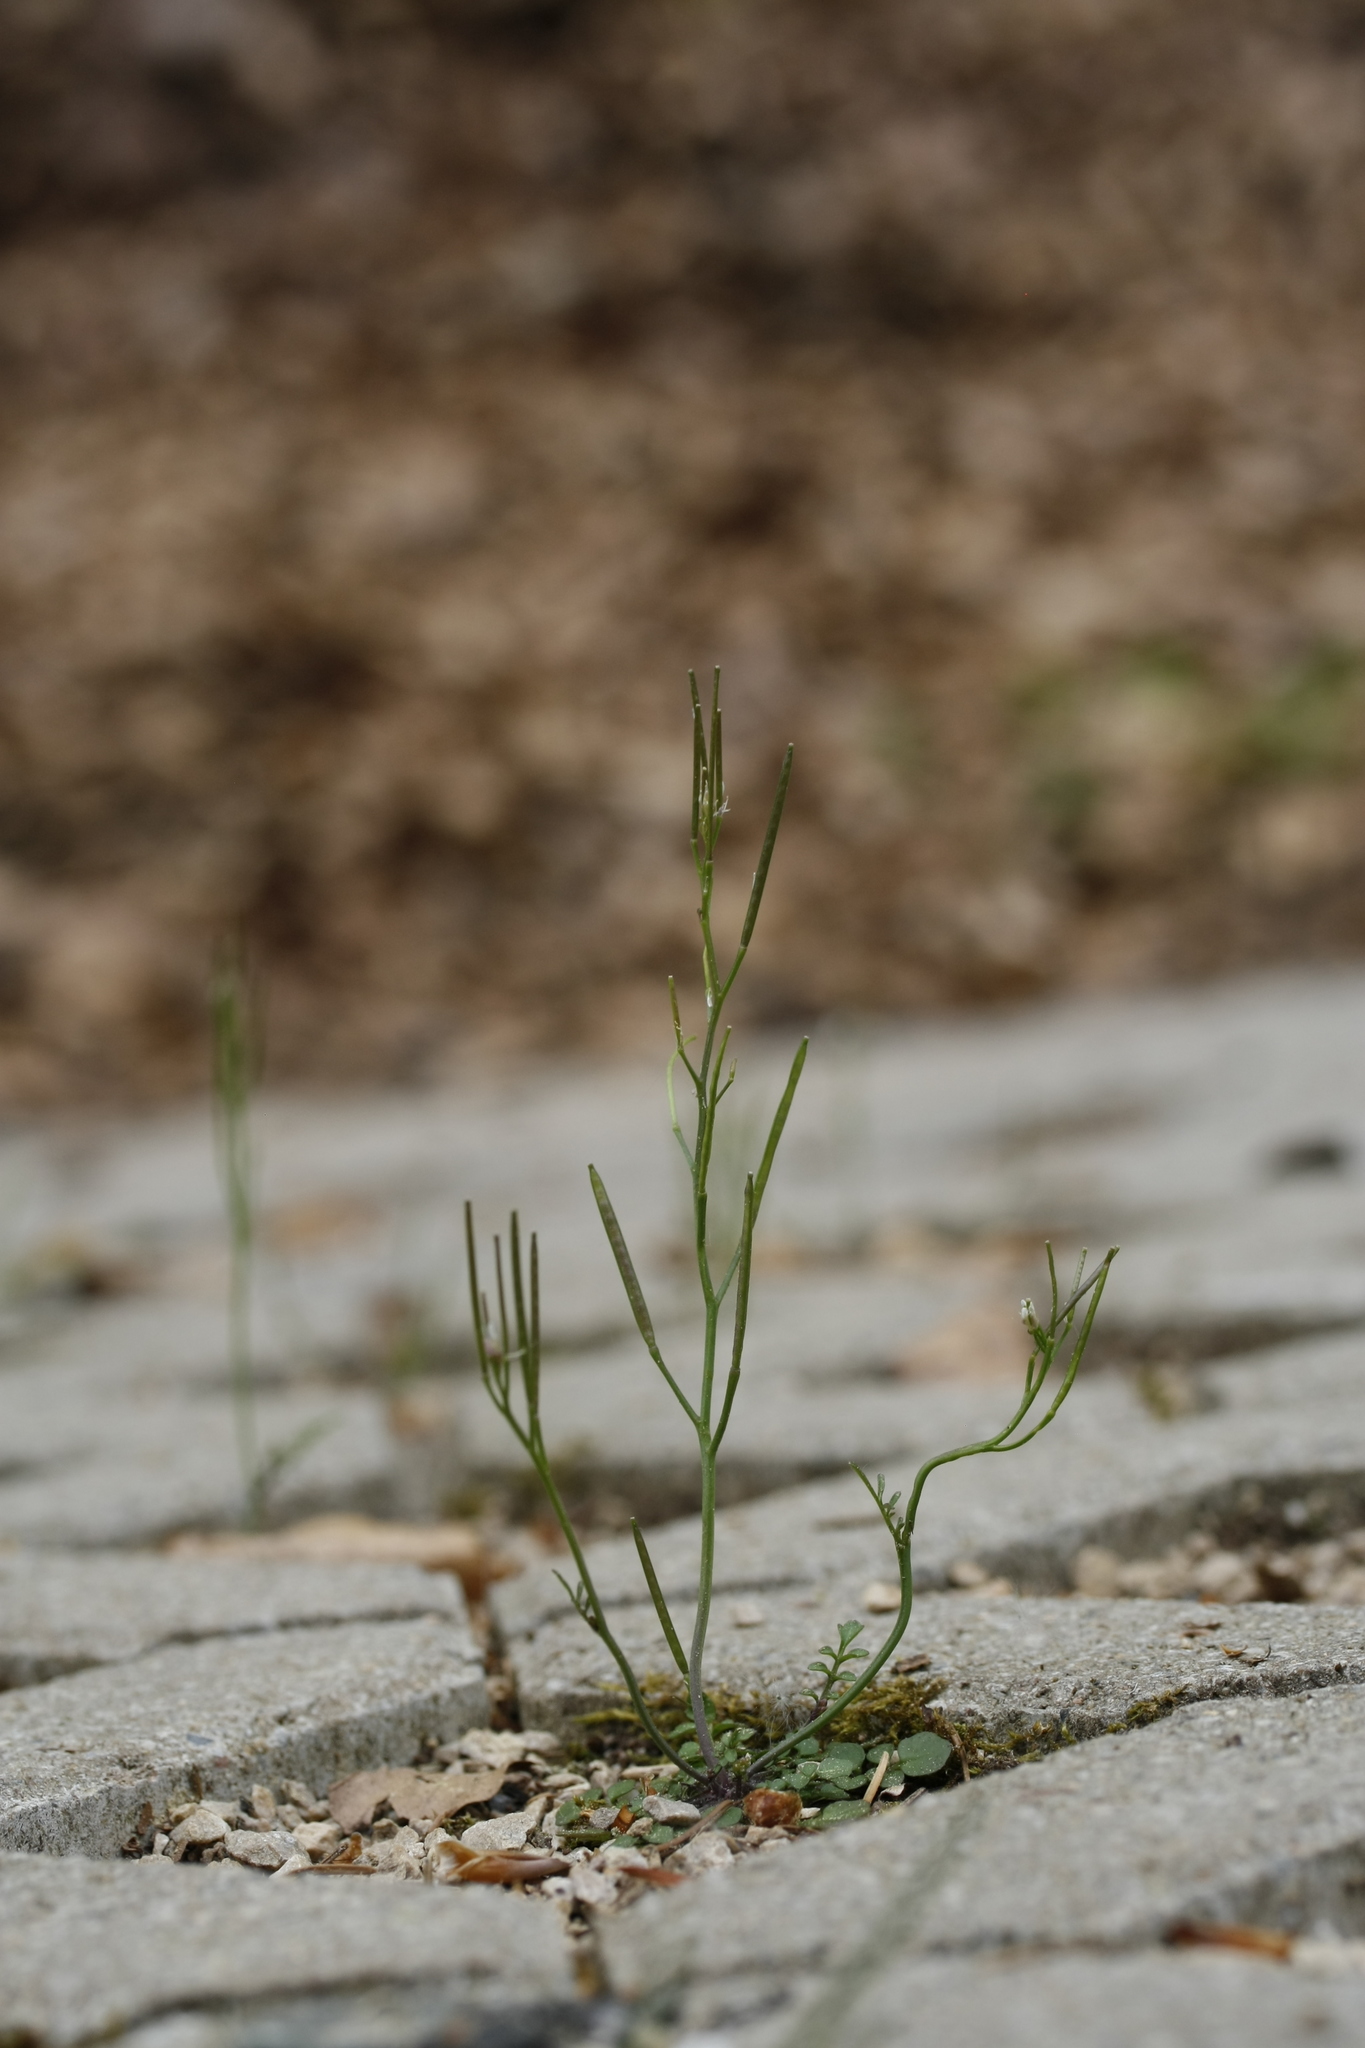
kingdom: Plantae
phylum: Tracheophyta
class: Magnoliopsida
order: Brassicales
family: Brassicaceae
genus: Cardamine
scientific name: Cardamine hirsuta
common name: Hairy bittercress
